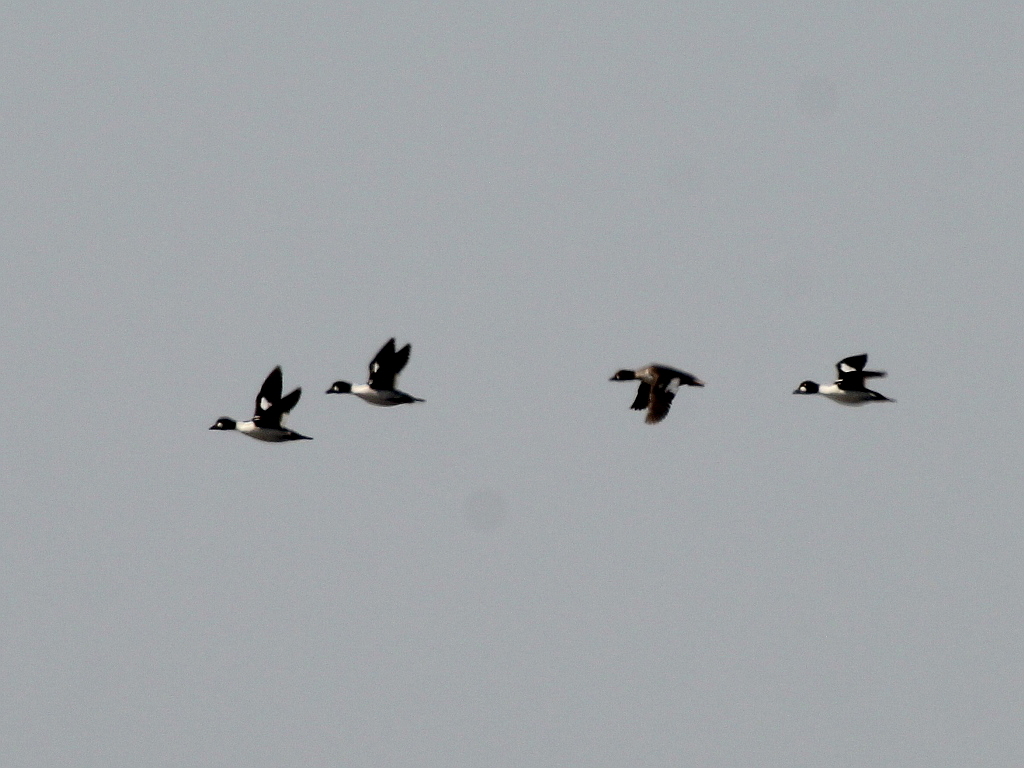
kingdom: Animalia
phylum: Chordata
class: Aves
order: Anseriformes
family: Anatidae
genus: Bucephala
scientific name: Bucephala clangula
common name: Common goldeneye
